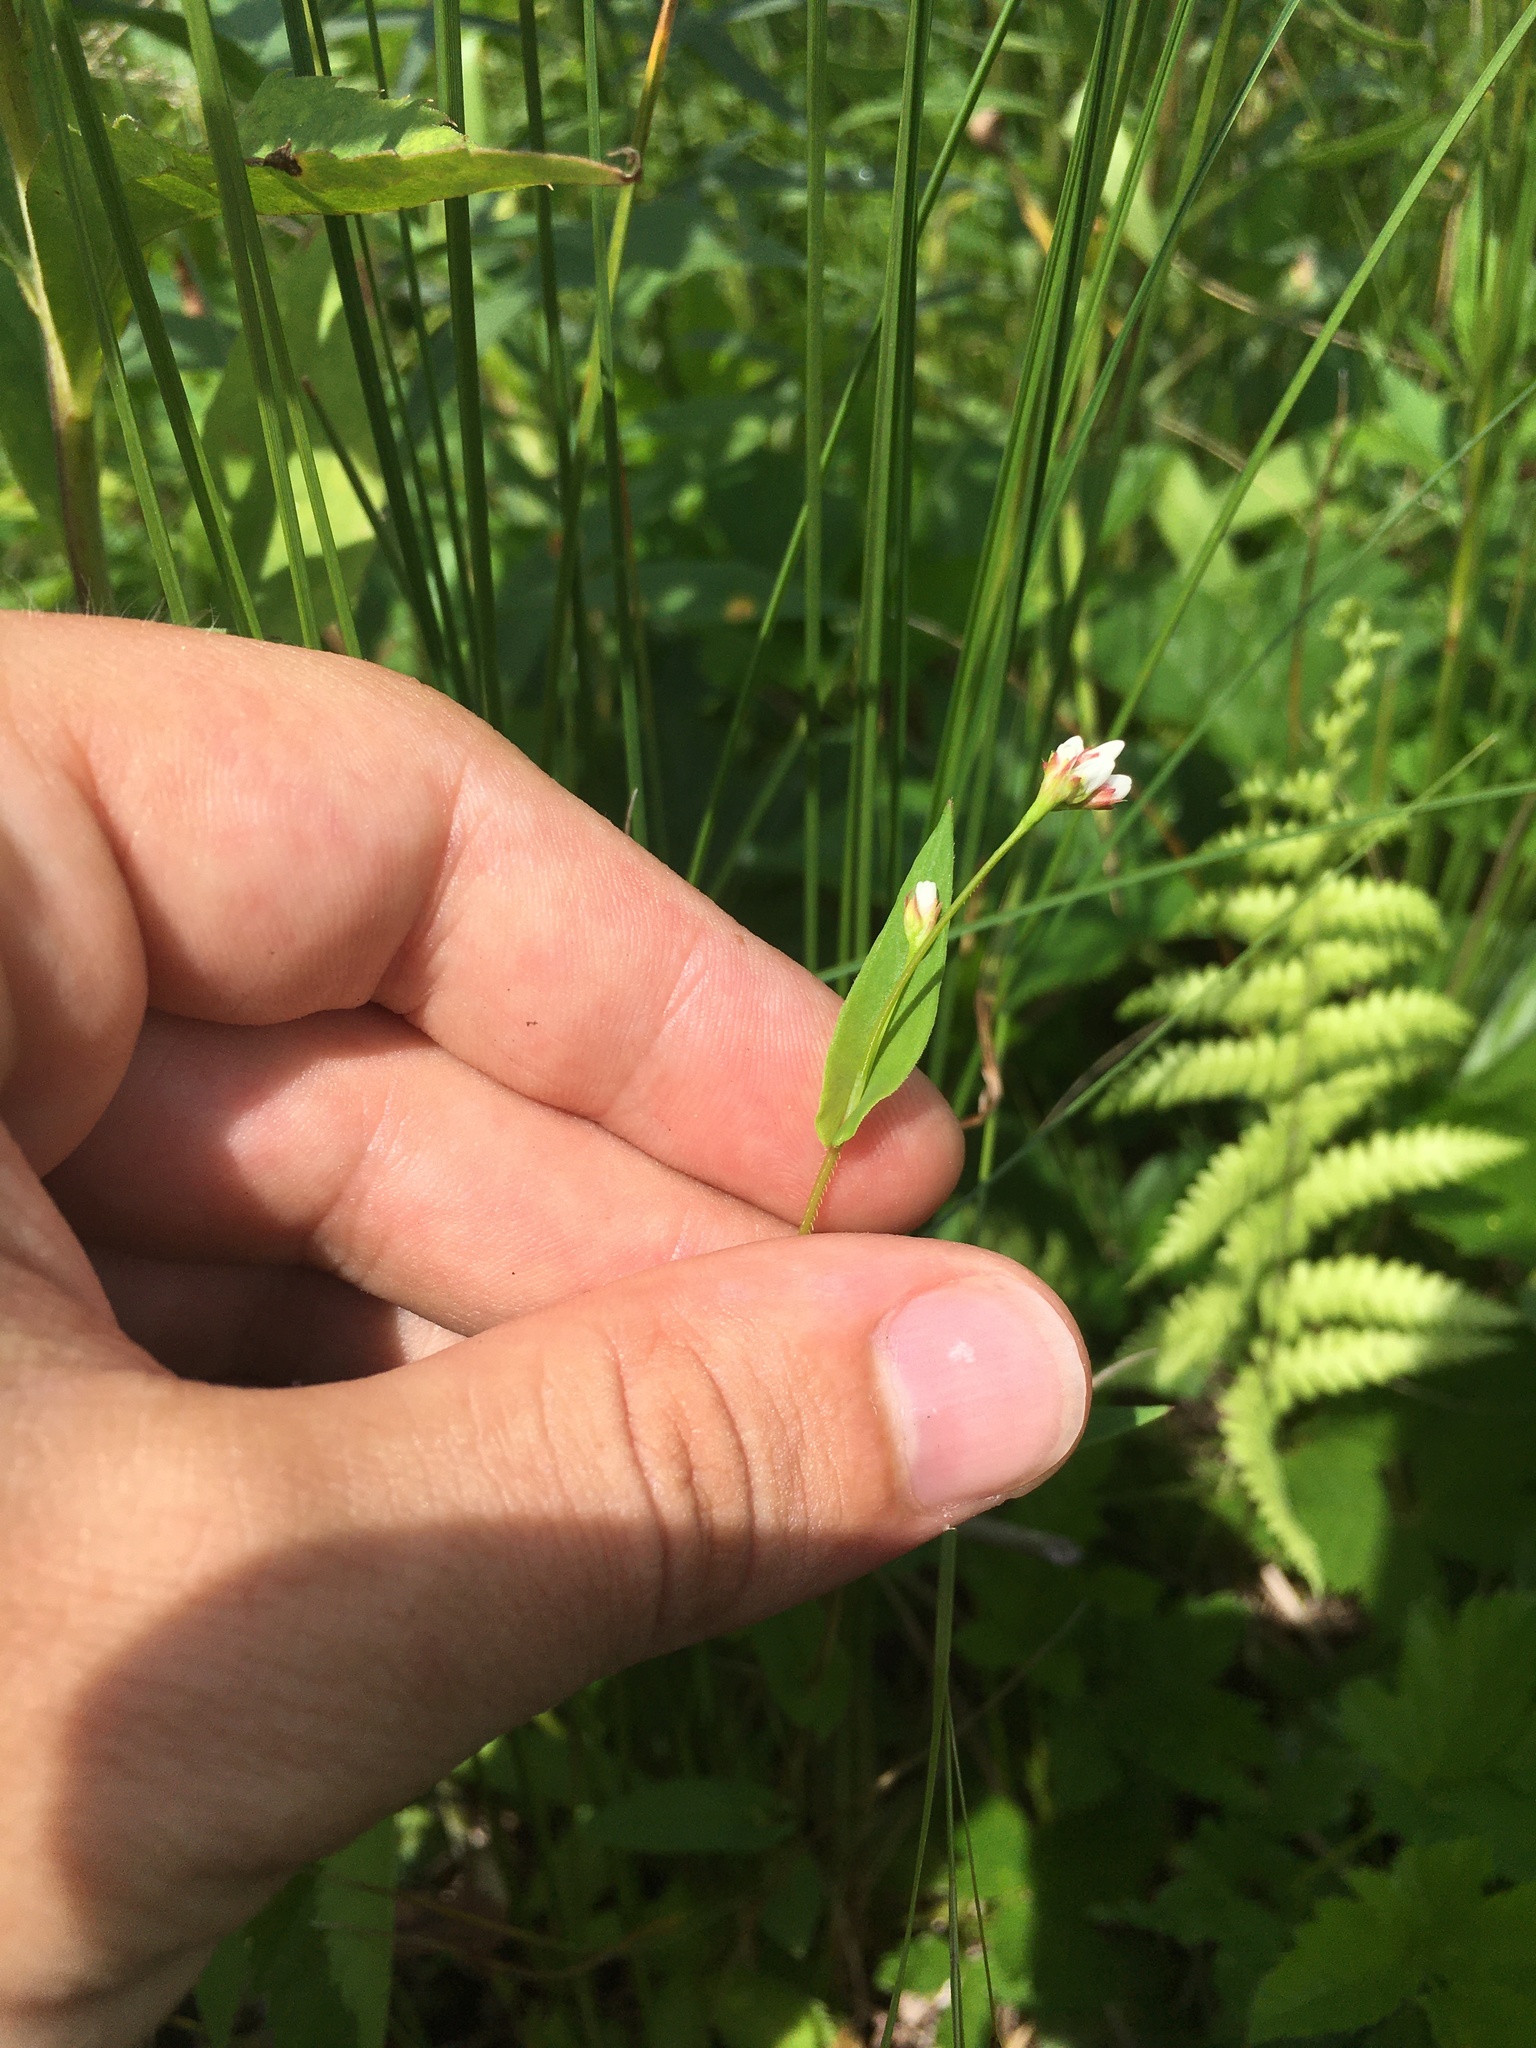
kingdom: Plantae
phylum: Tracheophyta
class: Magnoliopsida
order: Caryophyllales
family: Polygonaceae
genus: Persicaria
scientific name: Persicaria sagittata
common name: American tearthumb
